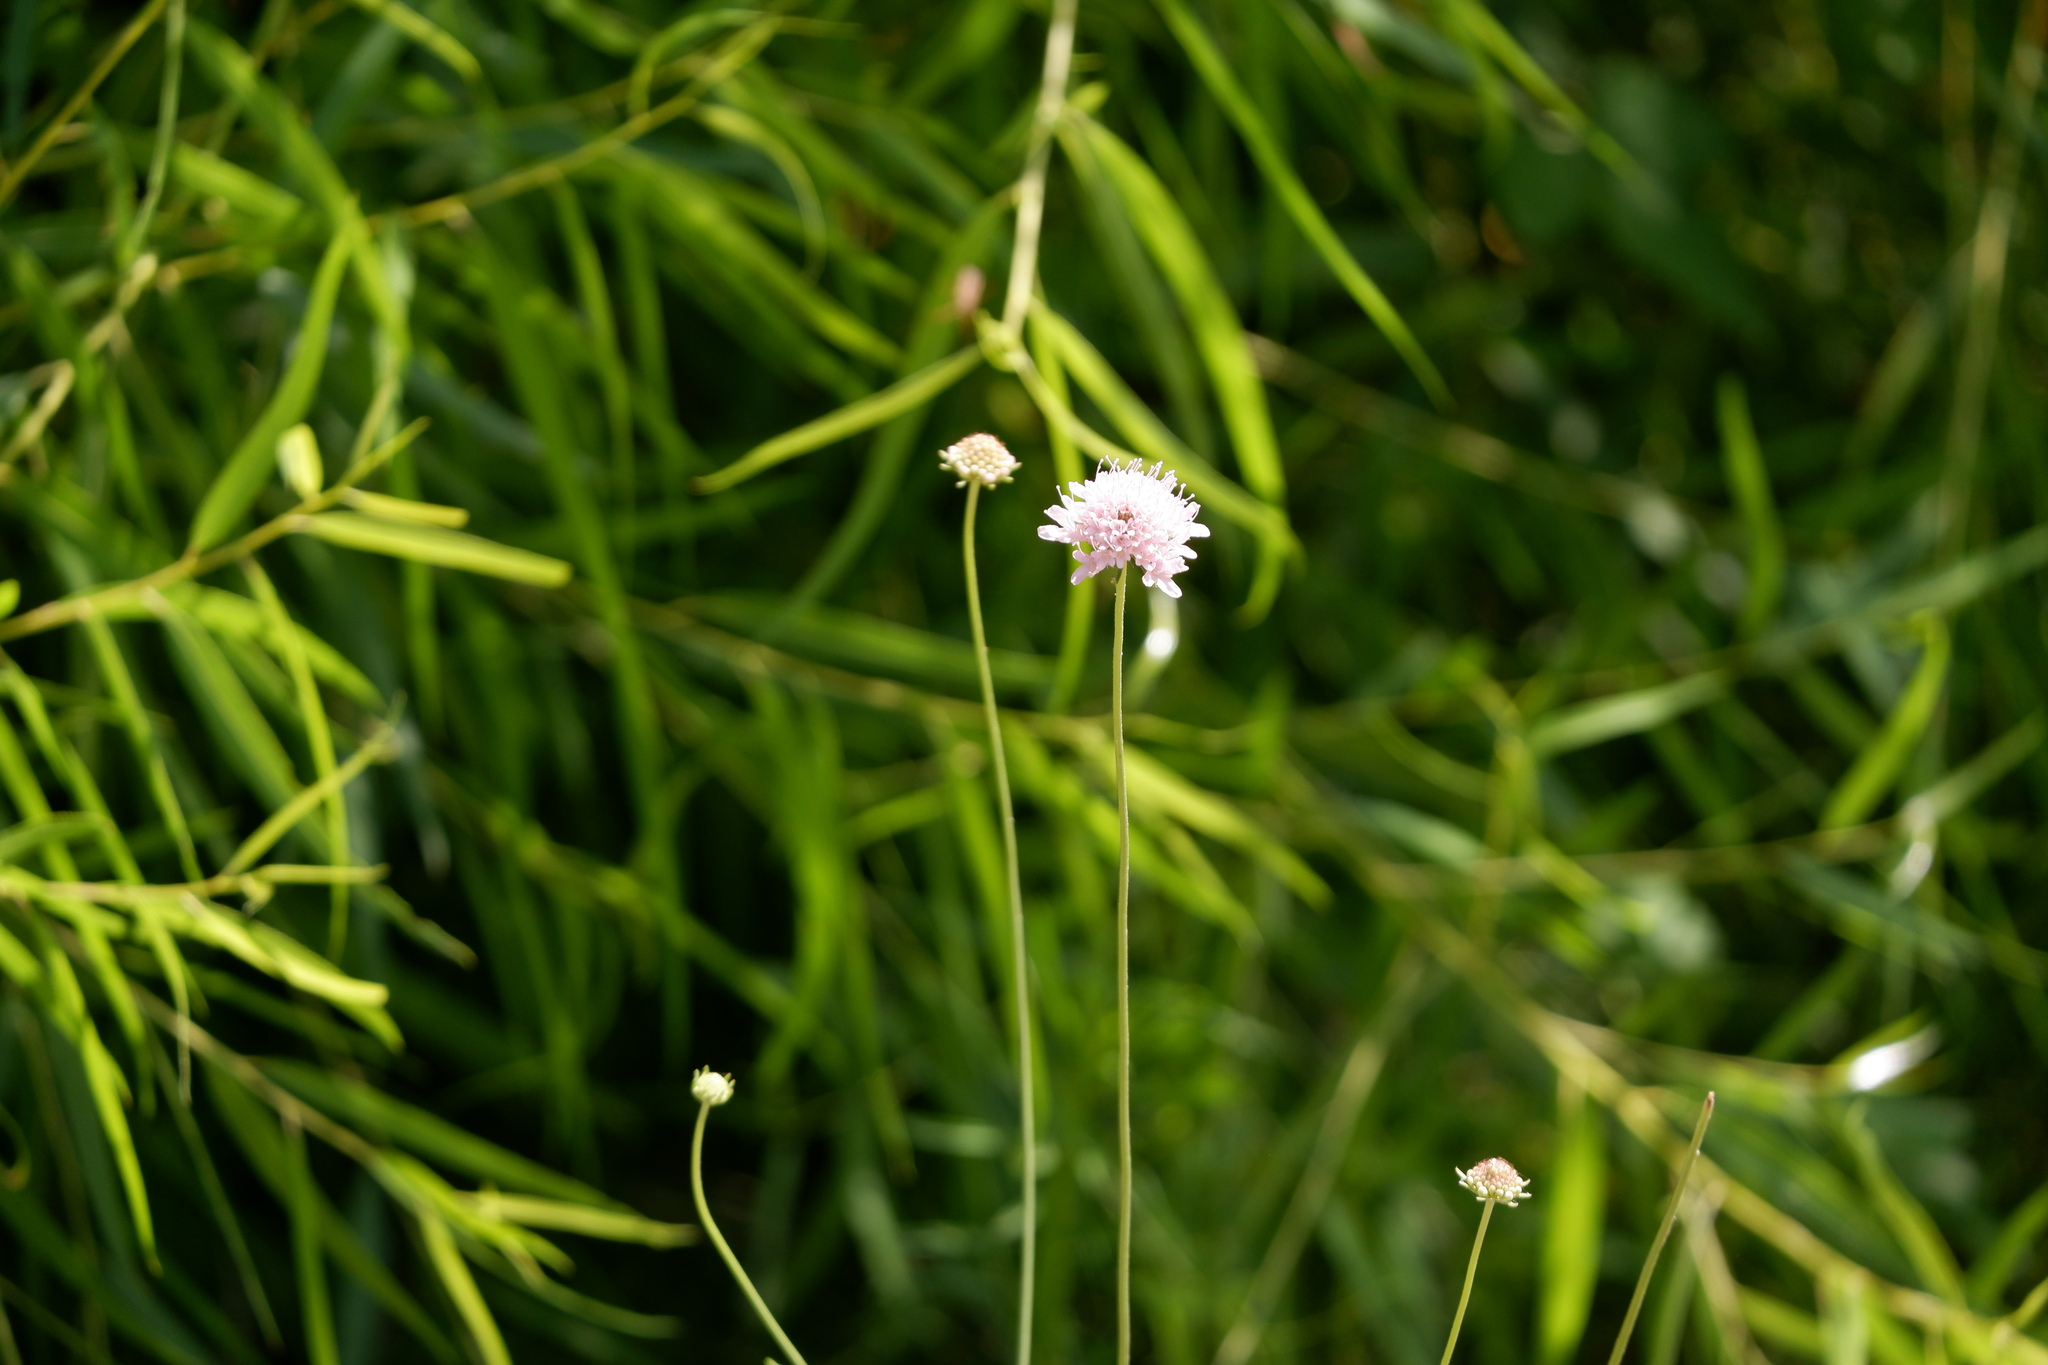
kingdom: Plantae
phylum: Tracheophyta
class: Magnoliopsida
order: Dipsacales
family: Caprifoliaceae
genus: Sixalix
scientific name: Sixalix atropurpurea
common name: Sweet scabious
